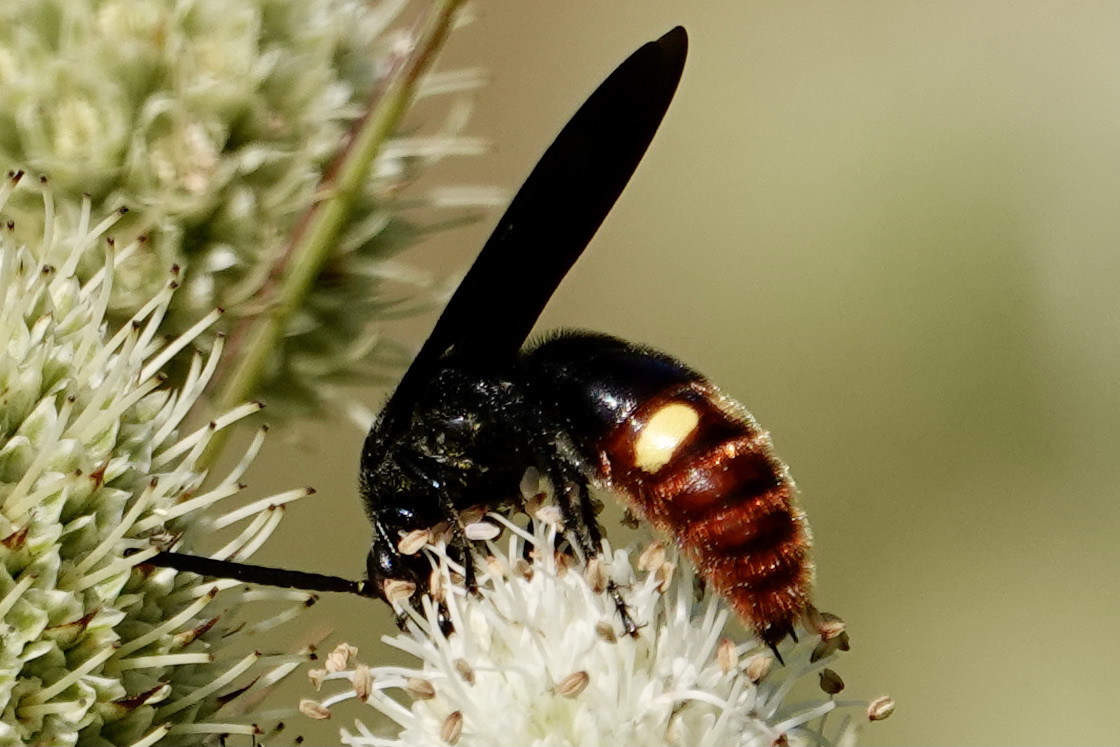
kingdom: Animalia
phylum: Arthropoda
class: Insecta
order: Hymenoptera
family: Scoliidae
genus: Scolia
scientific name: Scolia dubia
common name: Blue-winged scoliid wasp
